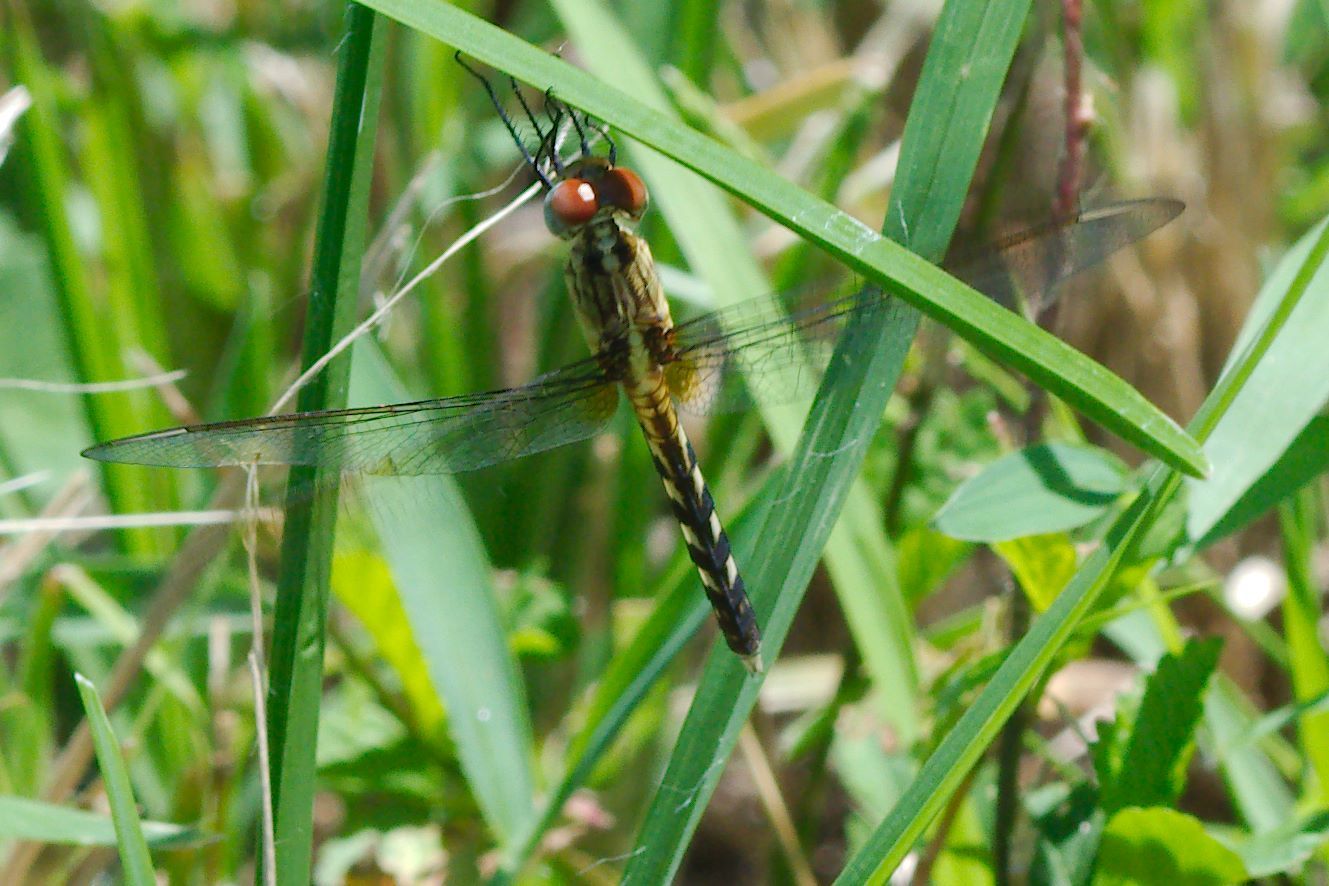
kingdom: Animalia
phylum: Arthropoda
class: Insecta
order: Odonata
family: Libellulidae
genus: Erythrodiplax
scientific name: Erythrodiplax umbrata
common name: Band-winged dragonlet
